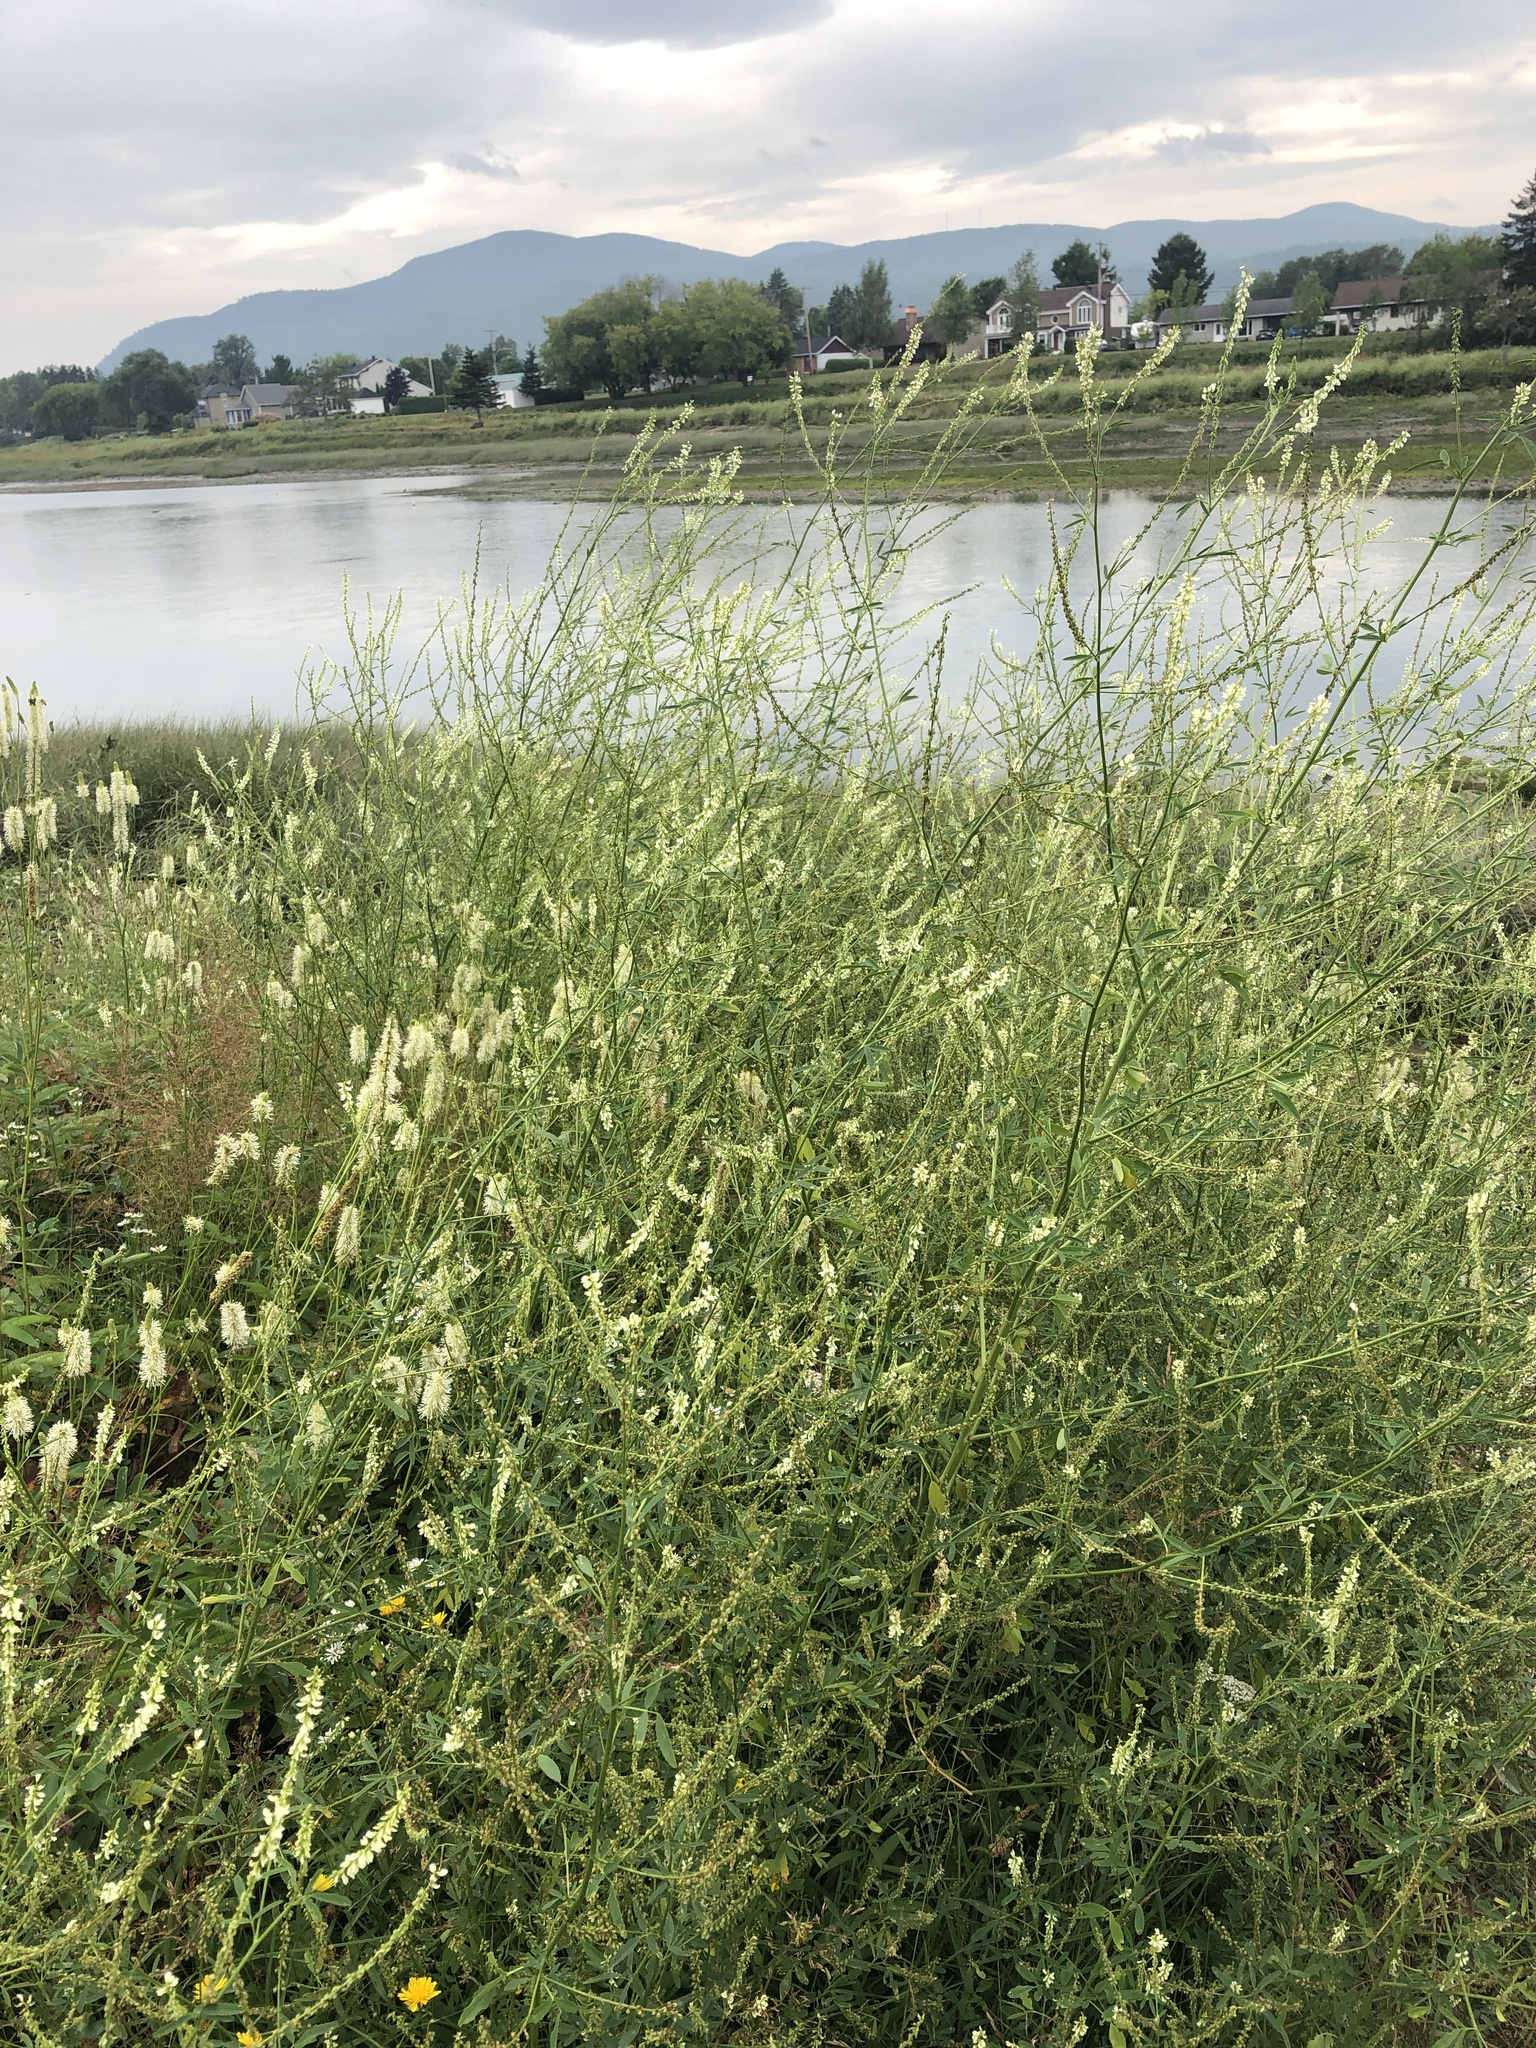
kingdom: Plantae
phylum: Tracheophyta
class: Magnoliopsida
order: Fabales
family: Fabaceae
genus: Melilotus
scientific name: Melilotus albus
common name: White melilot
